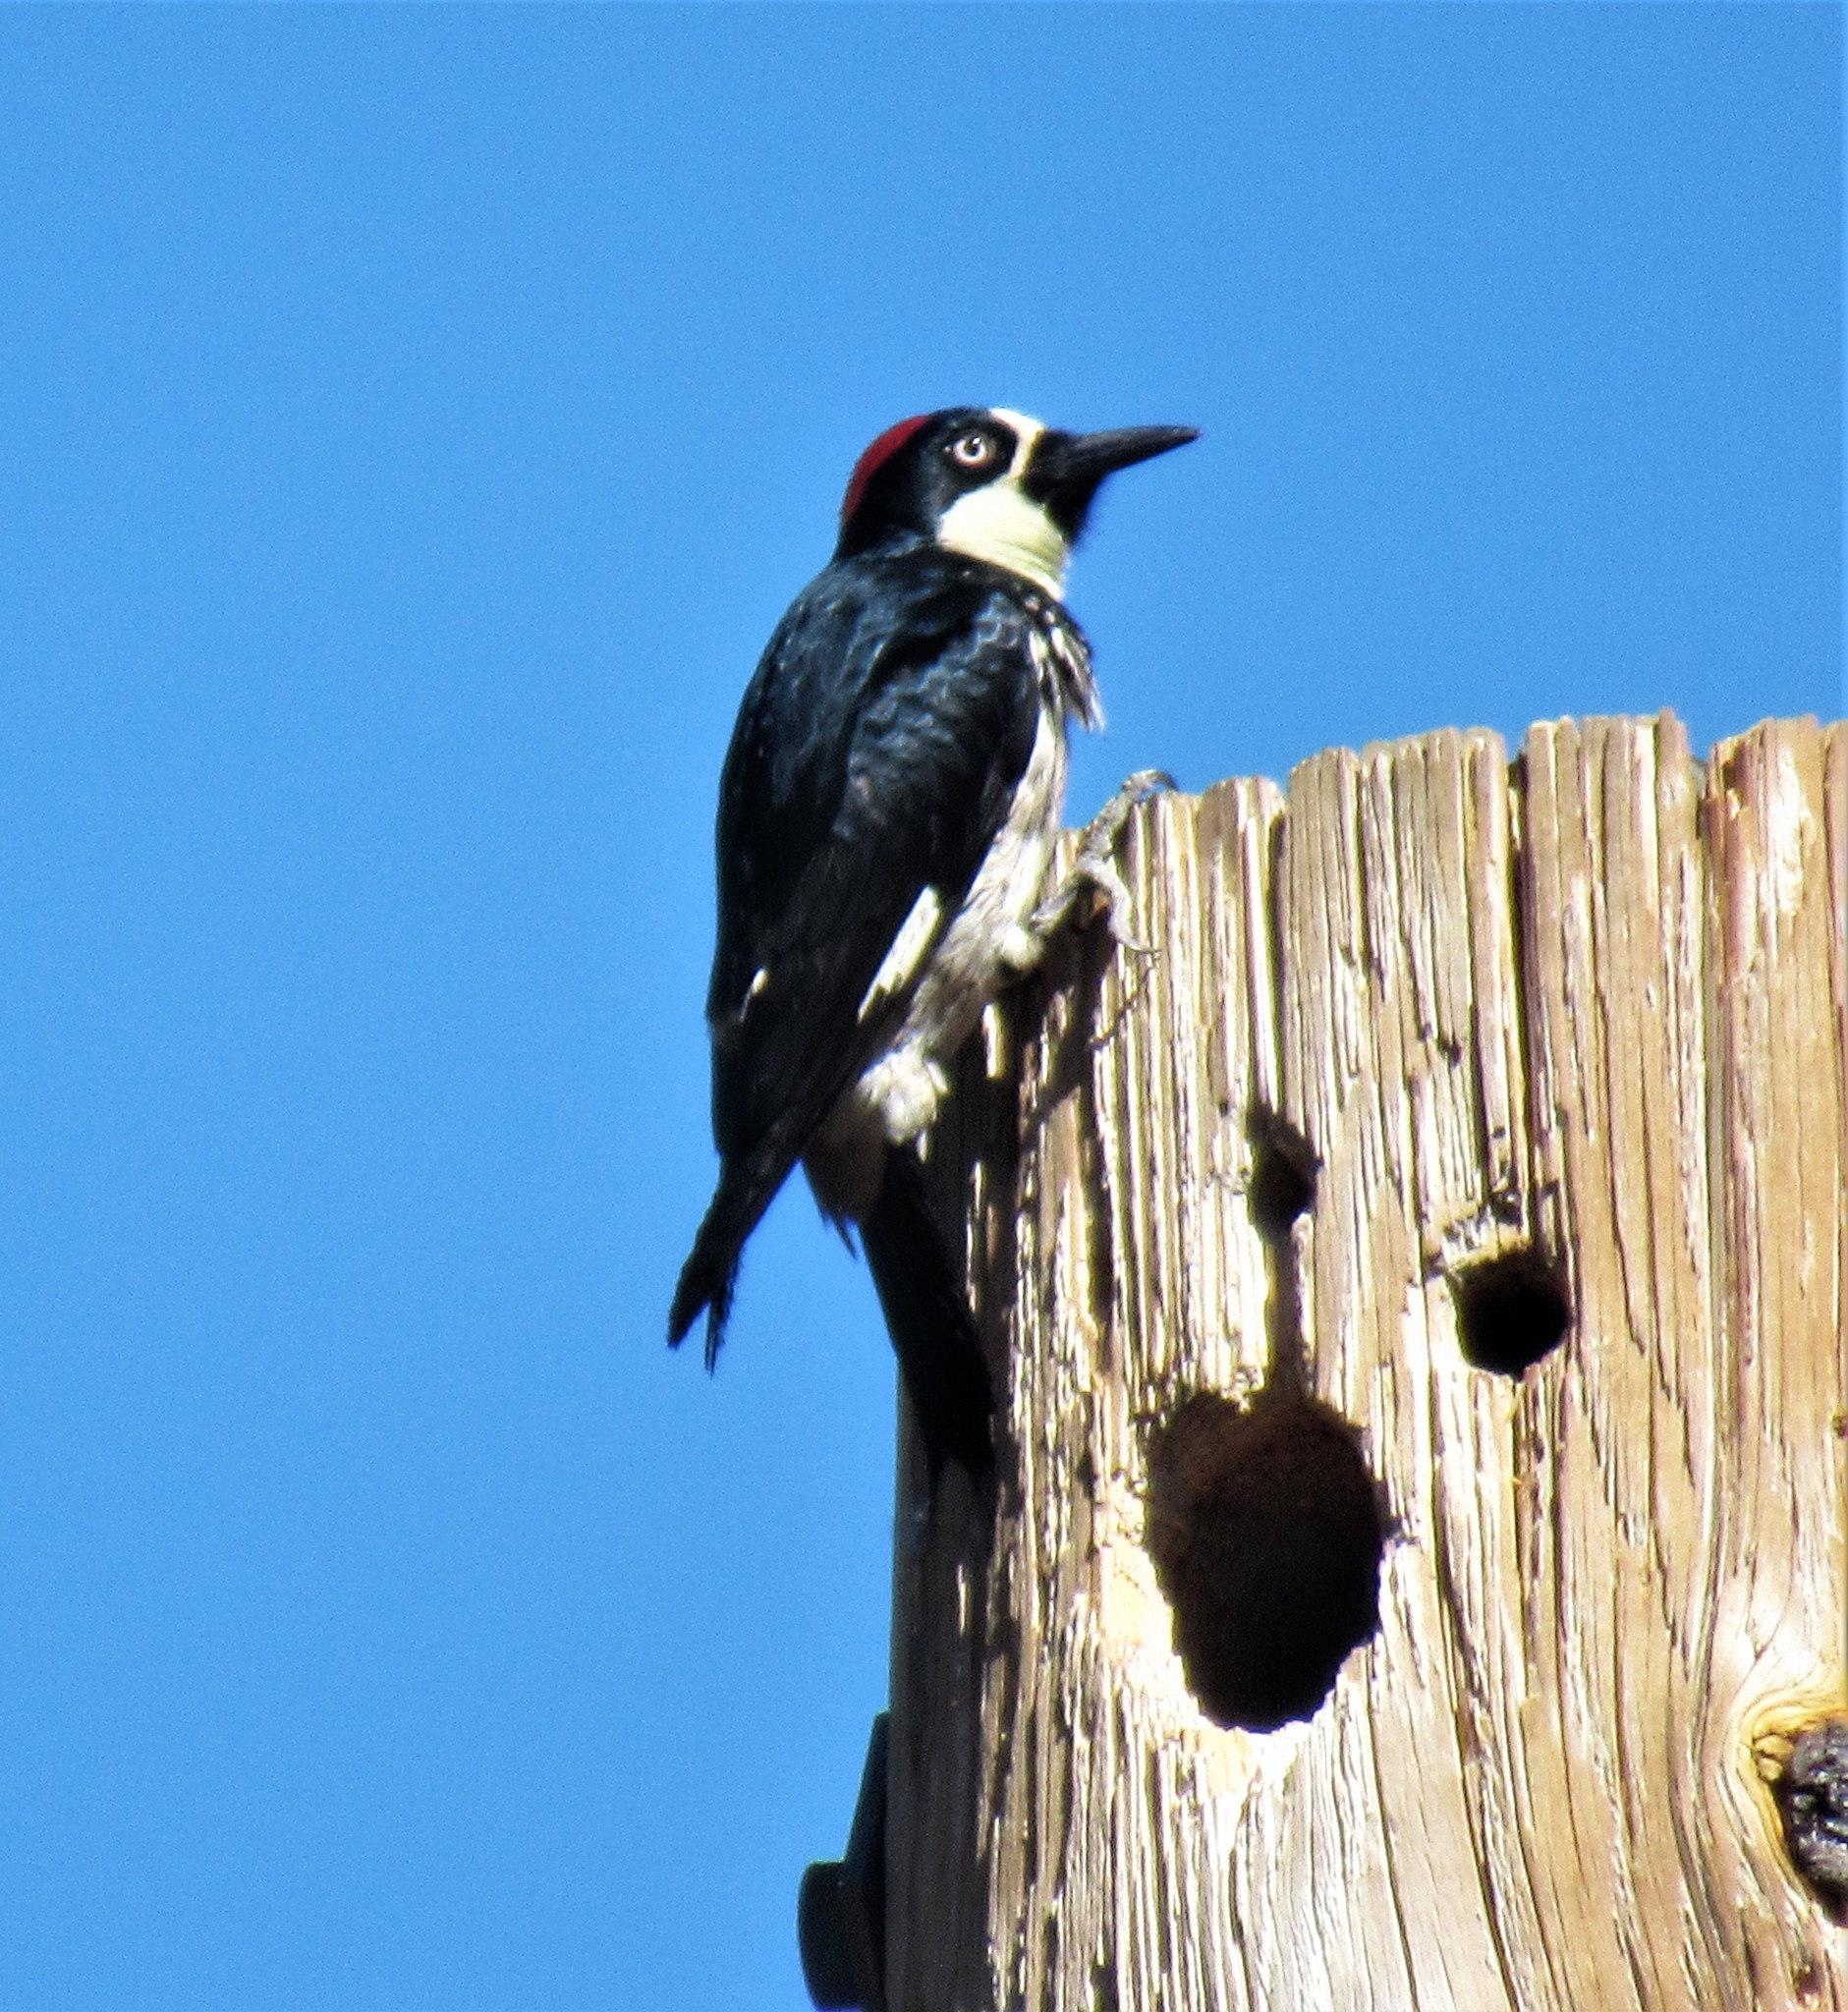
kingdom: Animalia
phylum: Chordata
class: Aves
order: Piciformes
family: Picidae
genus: Melanerpes
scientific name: Melanerpes formicivorus
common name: Acorn woodpecker
